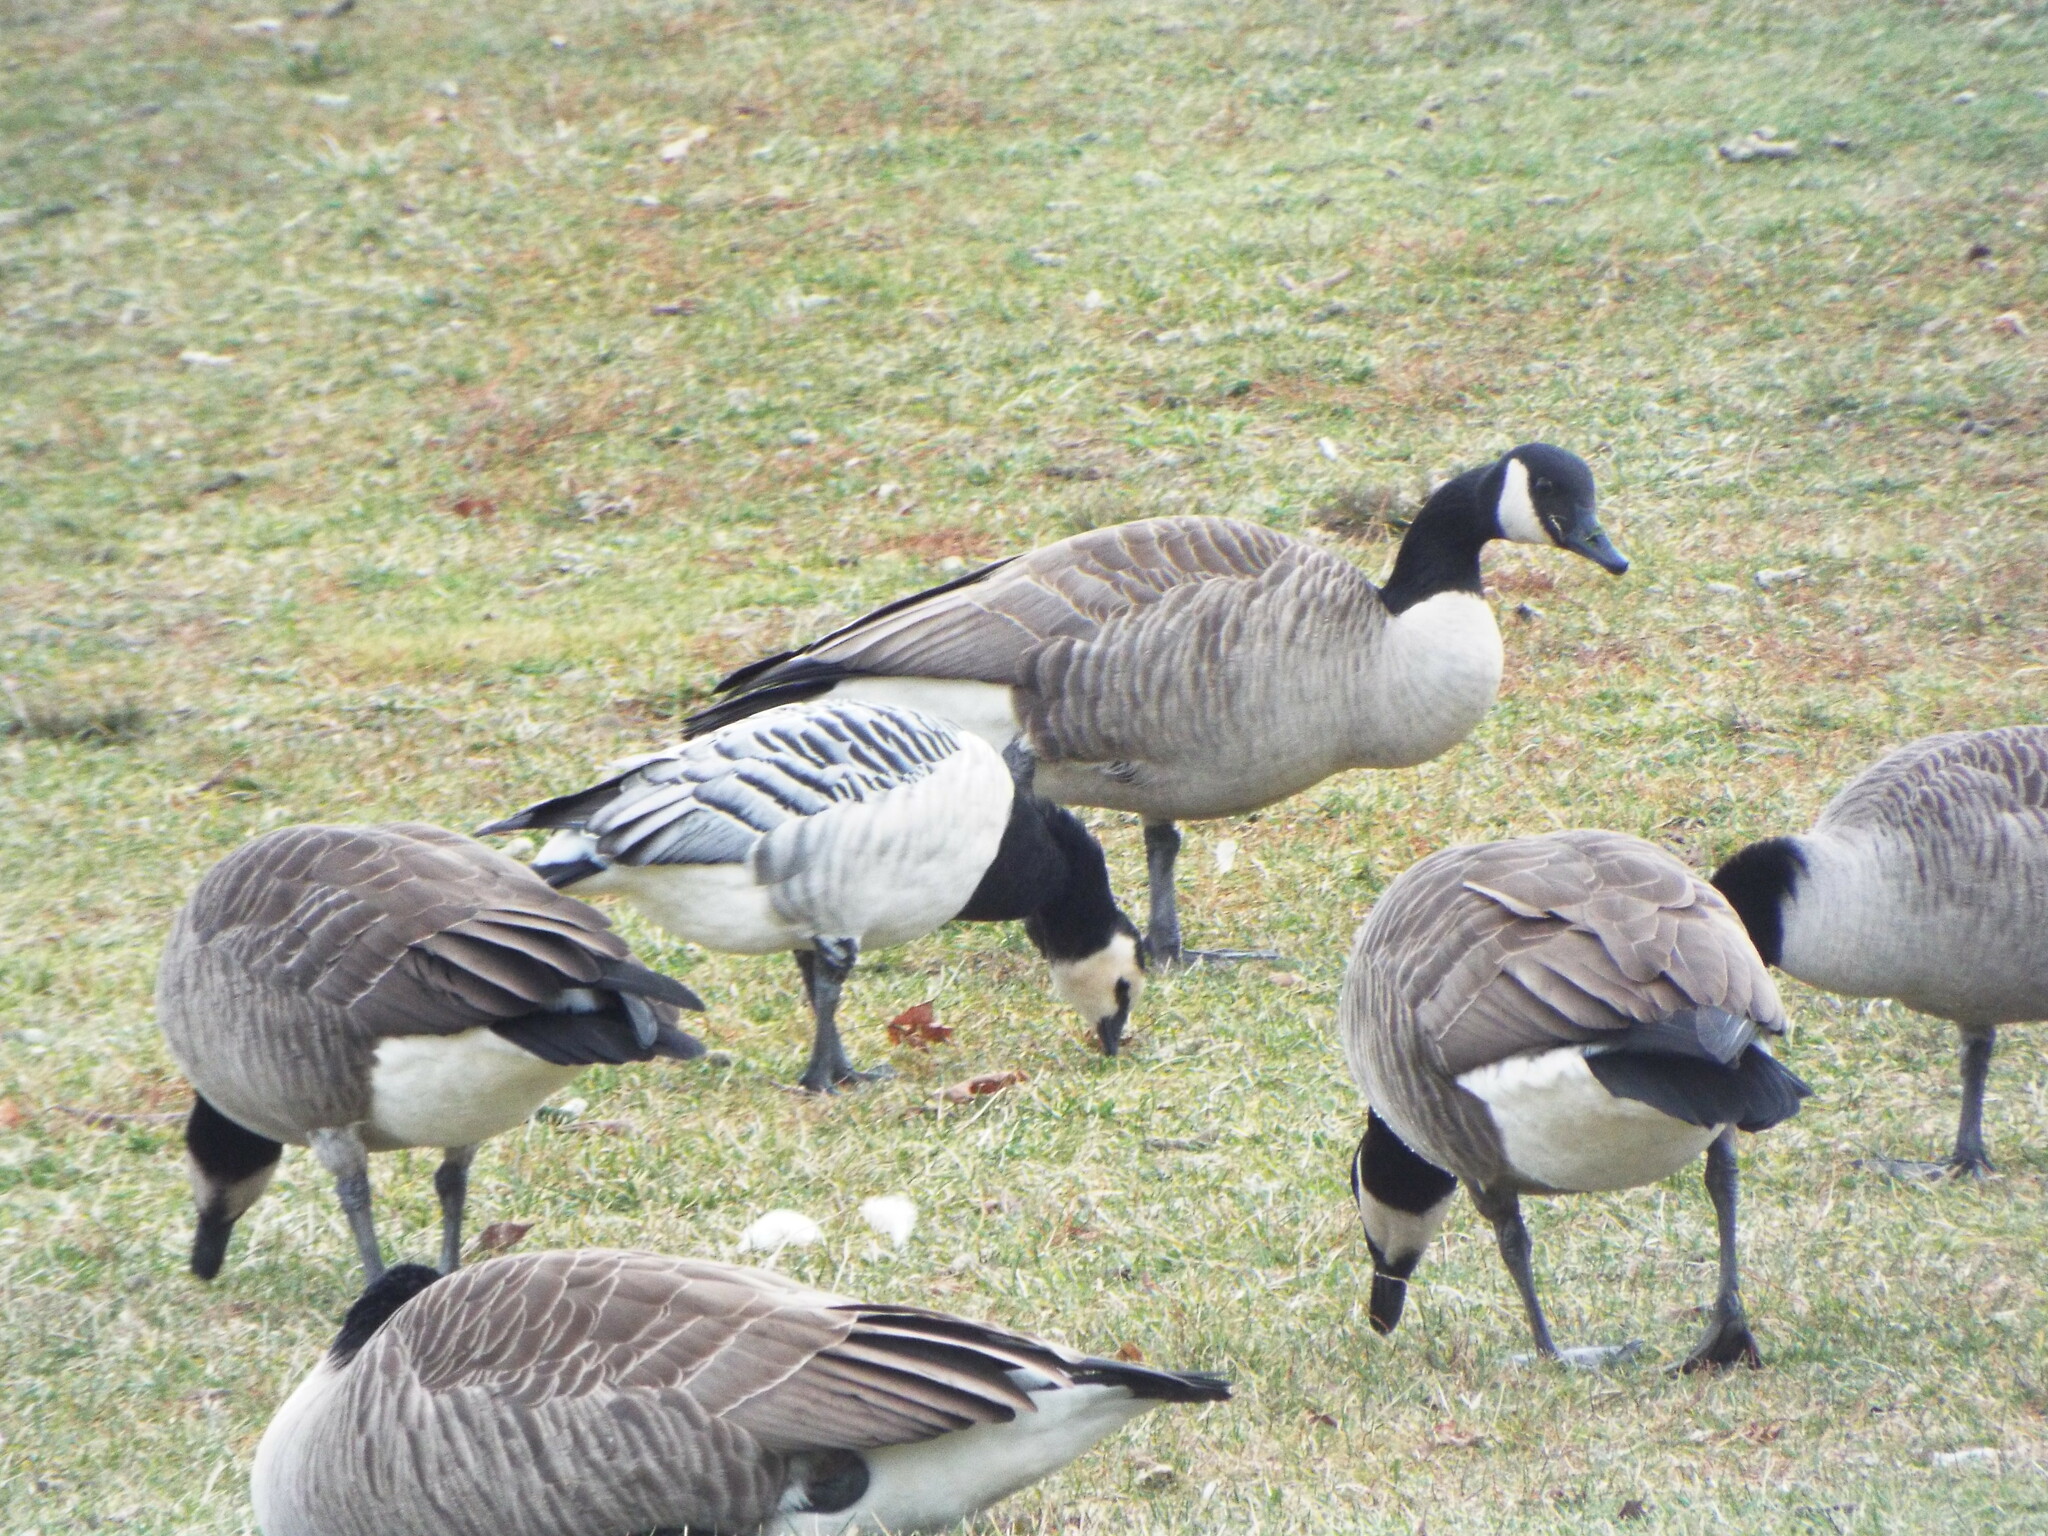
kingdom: Animalia
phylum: Chordata
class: Aves
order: Anseriformes
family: Anatidae
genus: Branta
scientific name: Branta leucopsis
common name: Barnacle goose
